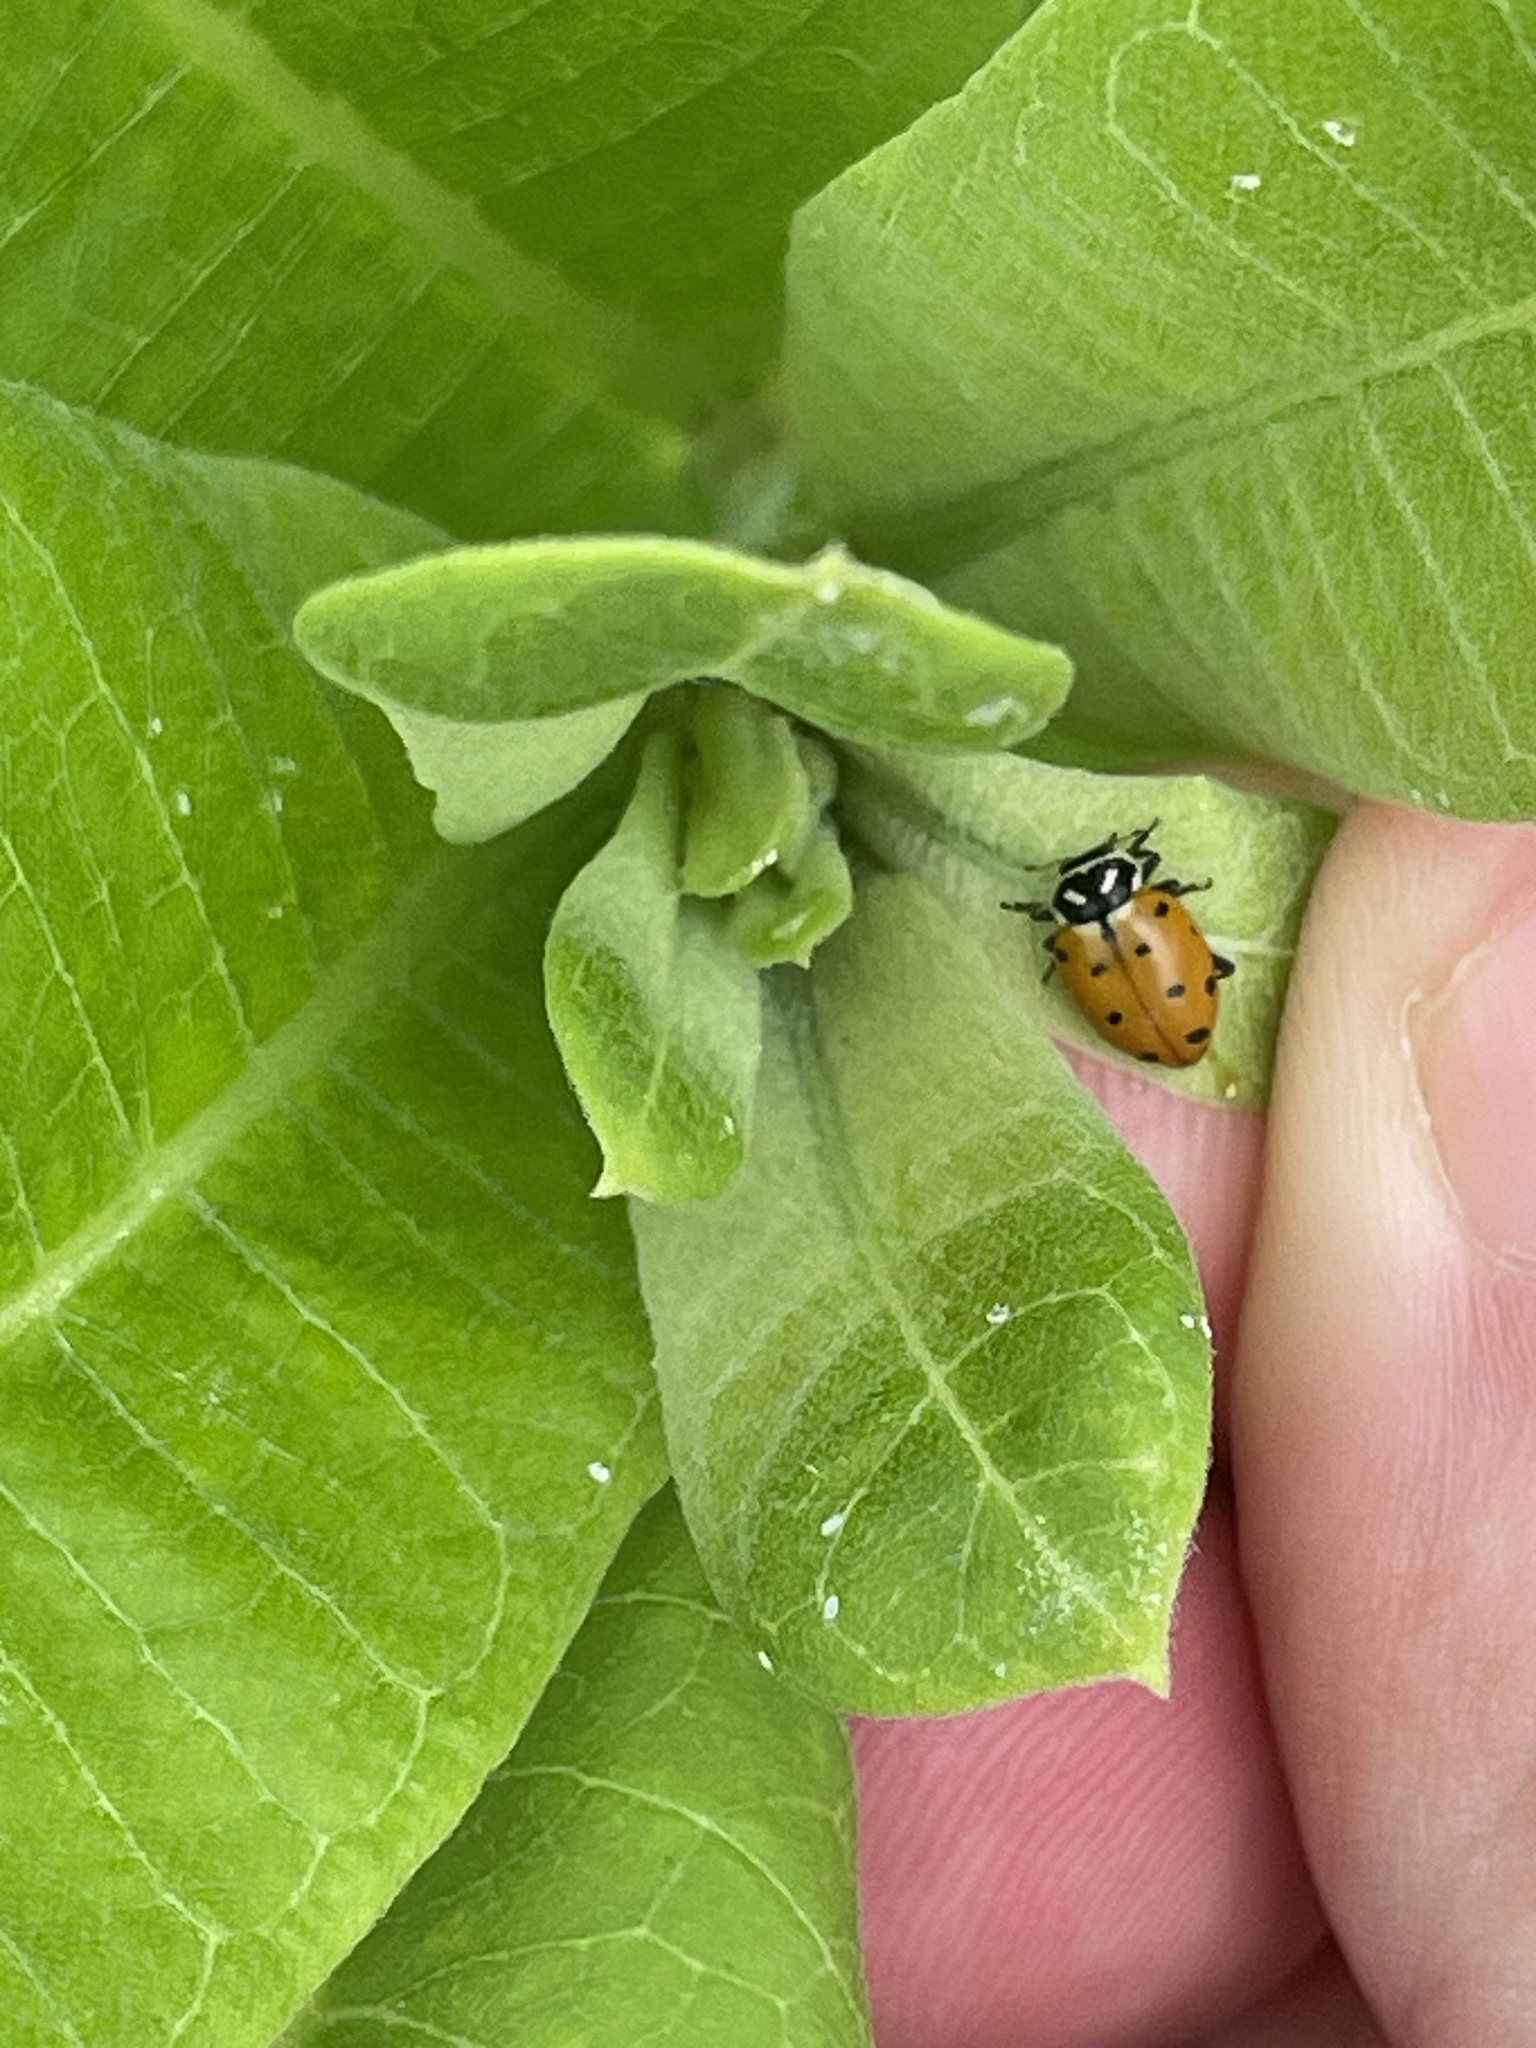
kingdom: Animalia
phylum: Arthropoda
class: Insecta
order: Coleoptera
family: Coccinellidae
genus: Hippodamia
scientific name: Hippodamia convergens
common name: Convergent lady beetle
